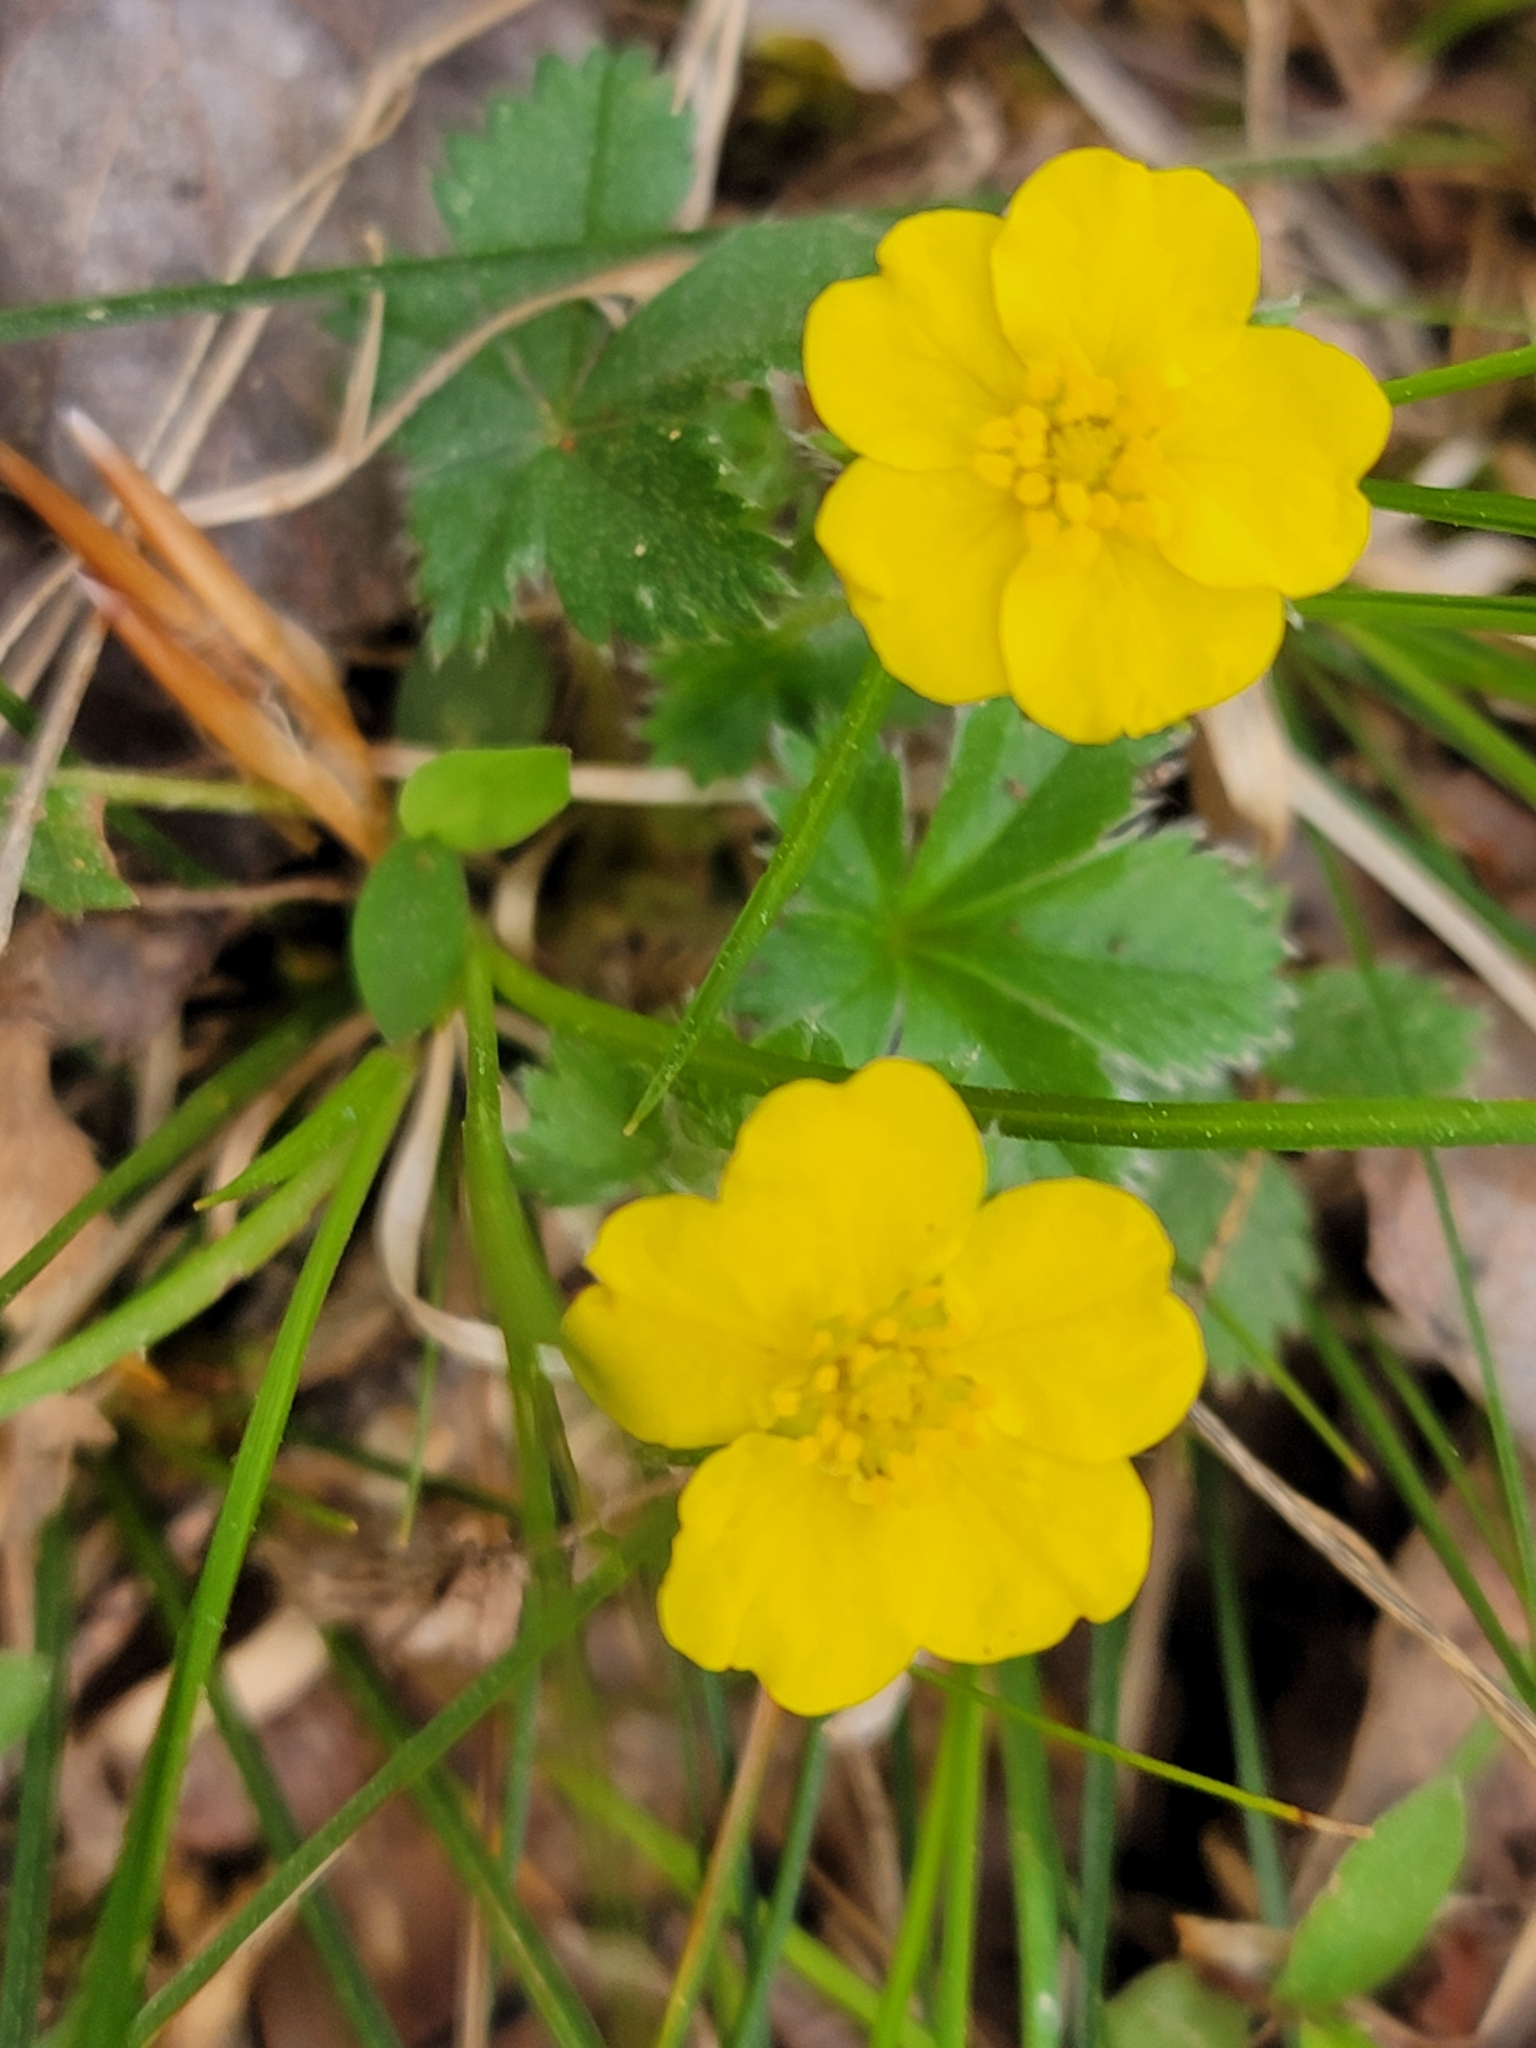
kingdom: Plantae
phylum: Tracheophyta
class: Magnoliopsida
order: Rosales
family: Rosaceae
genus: Potentilla
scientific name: Potentilla canadensis
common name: Canada cinquefoil
